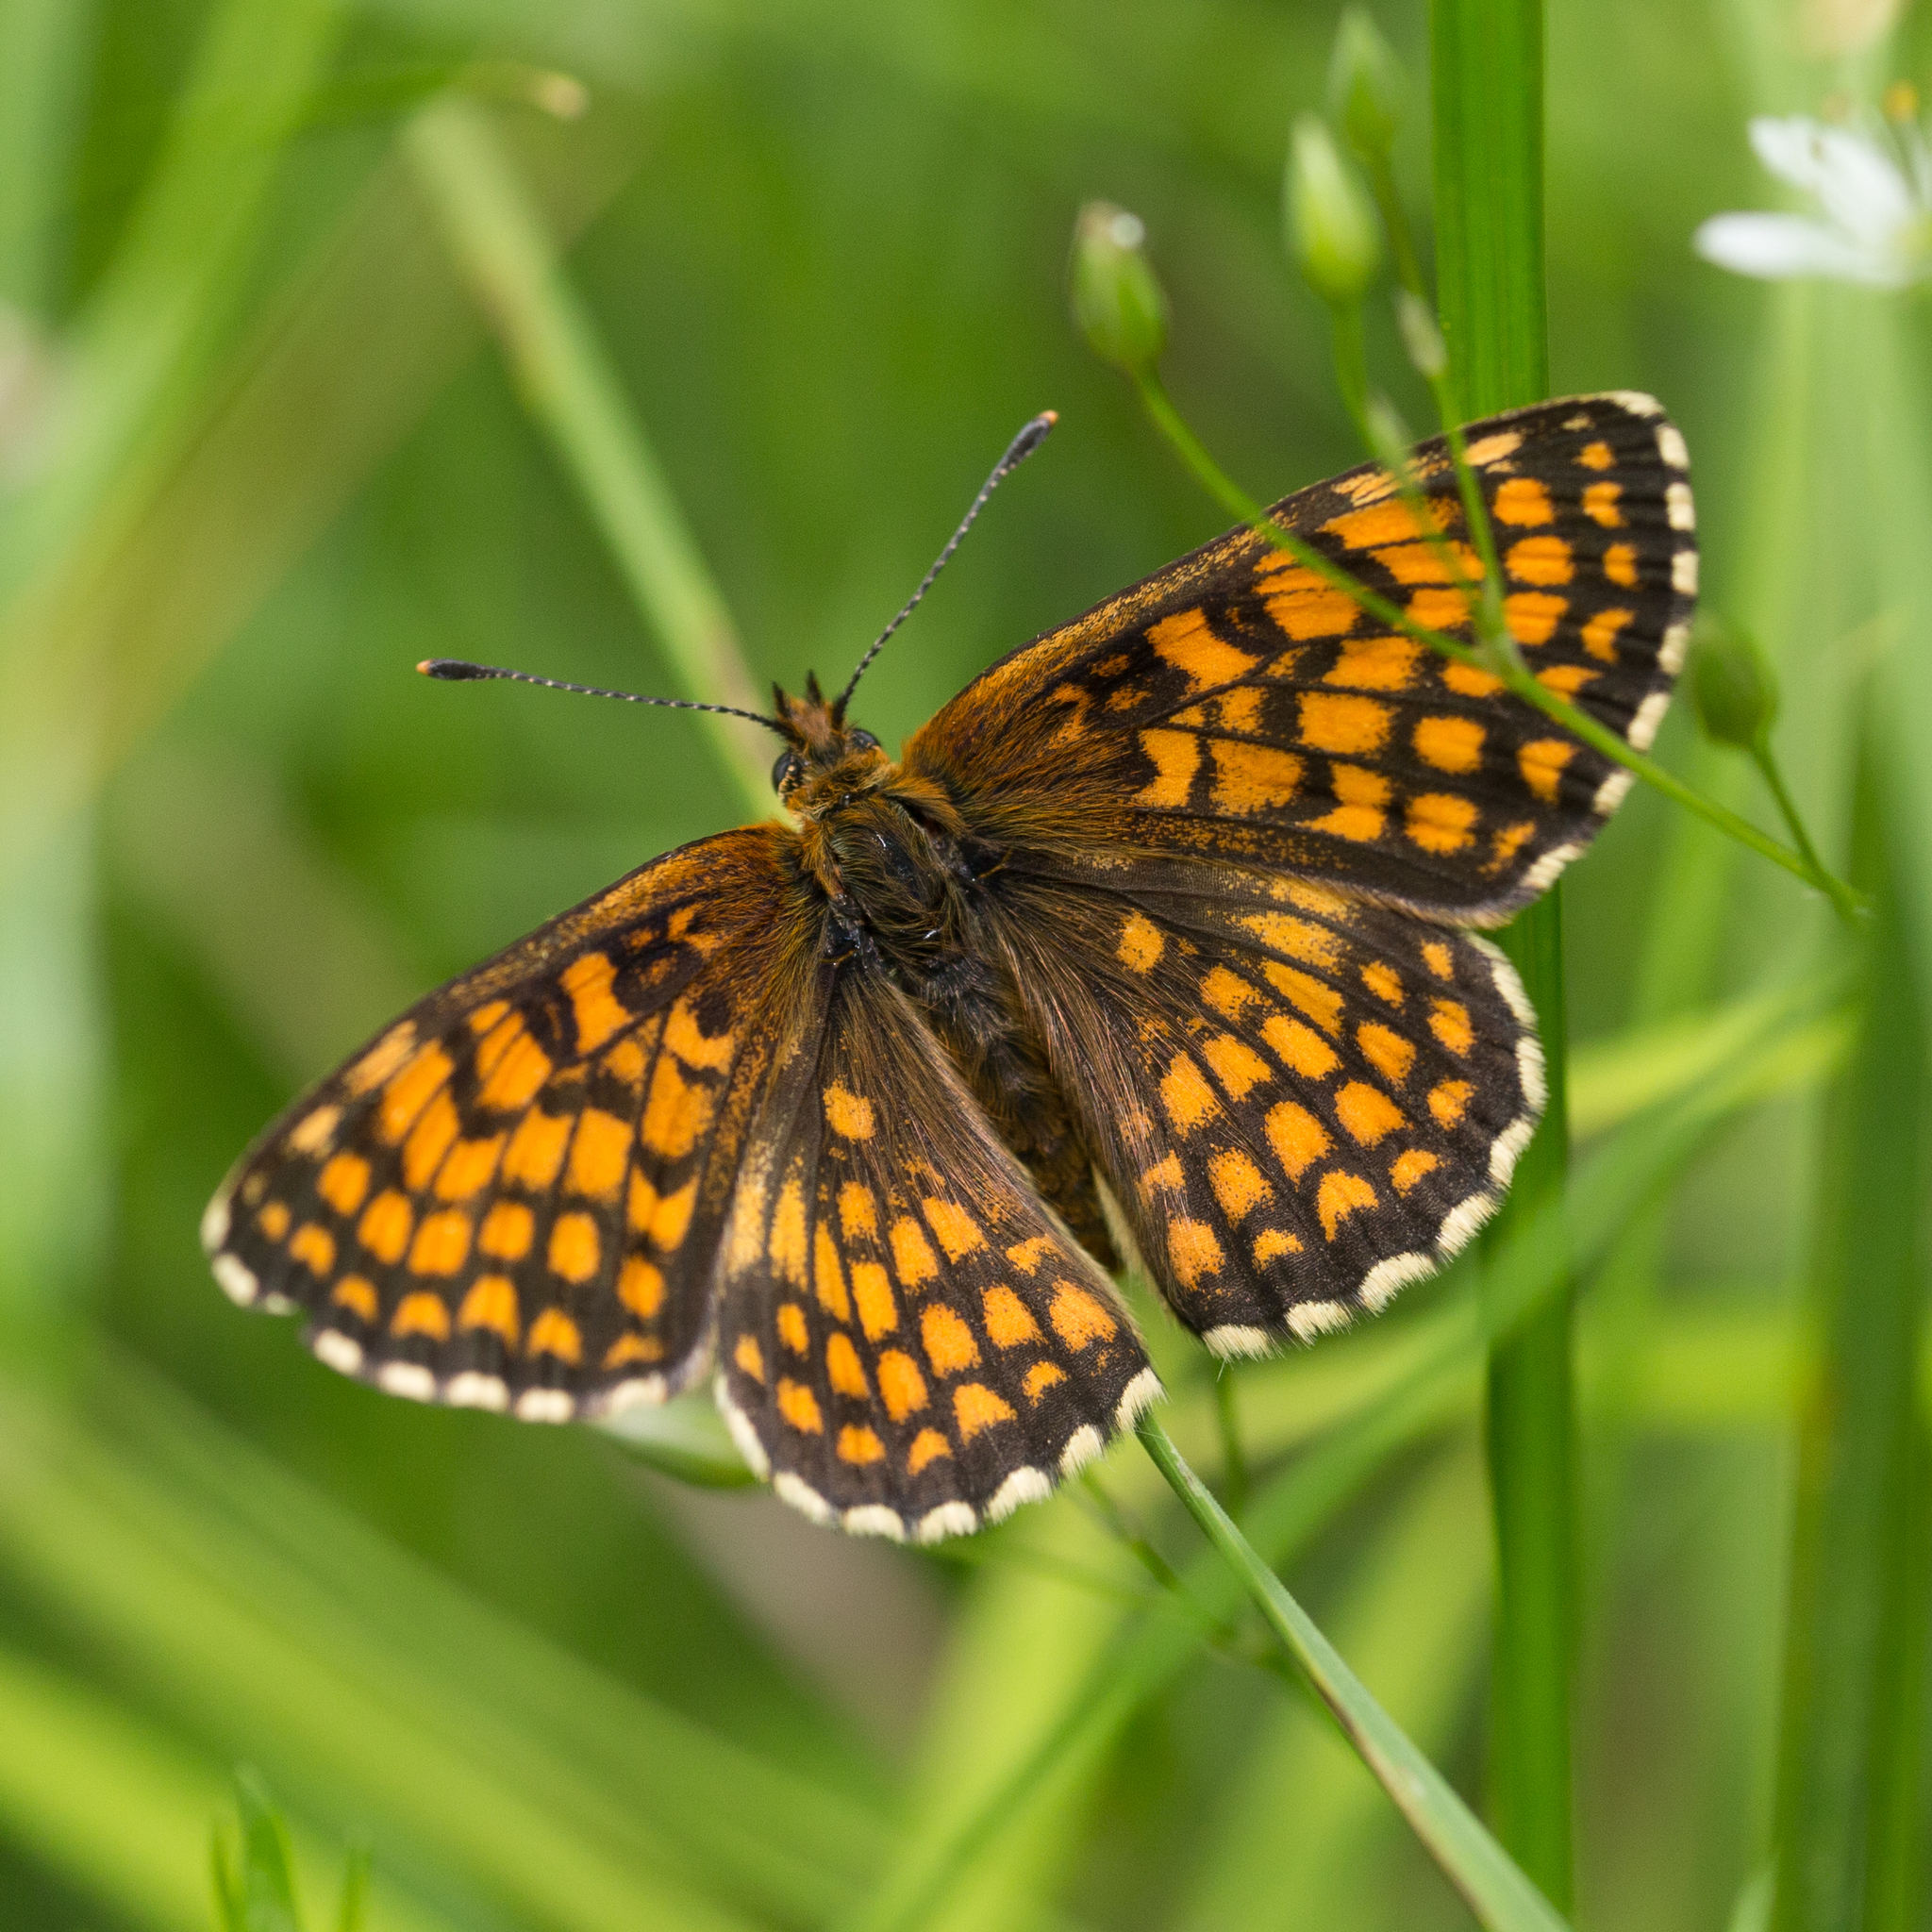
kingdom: Animalia
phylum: Arthropoda
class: Insecta
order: Lepidoptera
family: Nymphalidae
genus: Melitaea
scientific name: Melitaea athalia
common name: Heath fritillary
